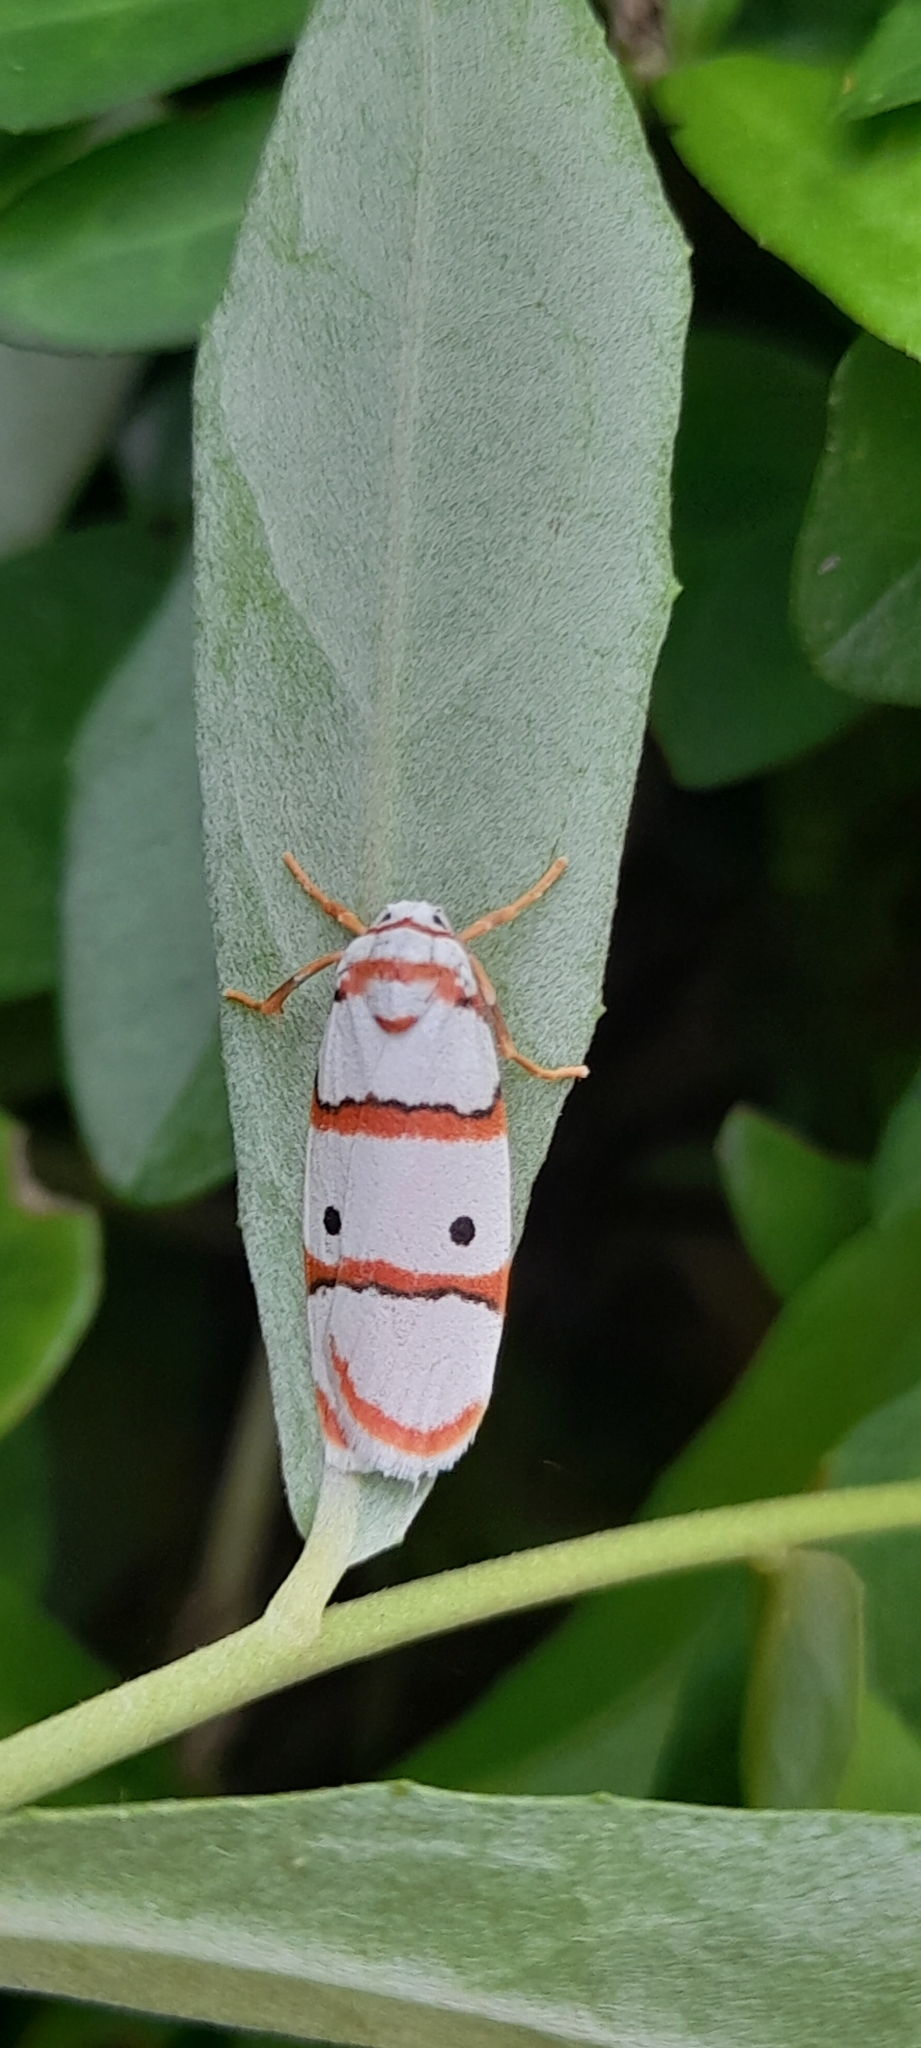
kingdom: Animalia
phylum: Arthropoda
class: Insecta
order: Lepidoptera
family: Erebidae
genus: Cyana
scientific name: Cyana peregrina
